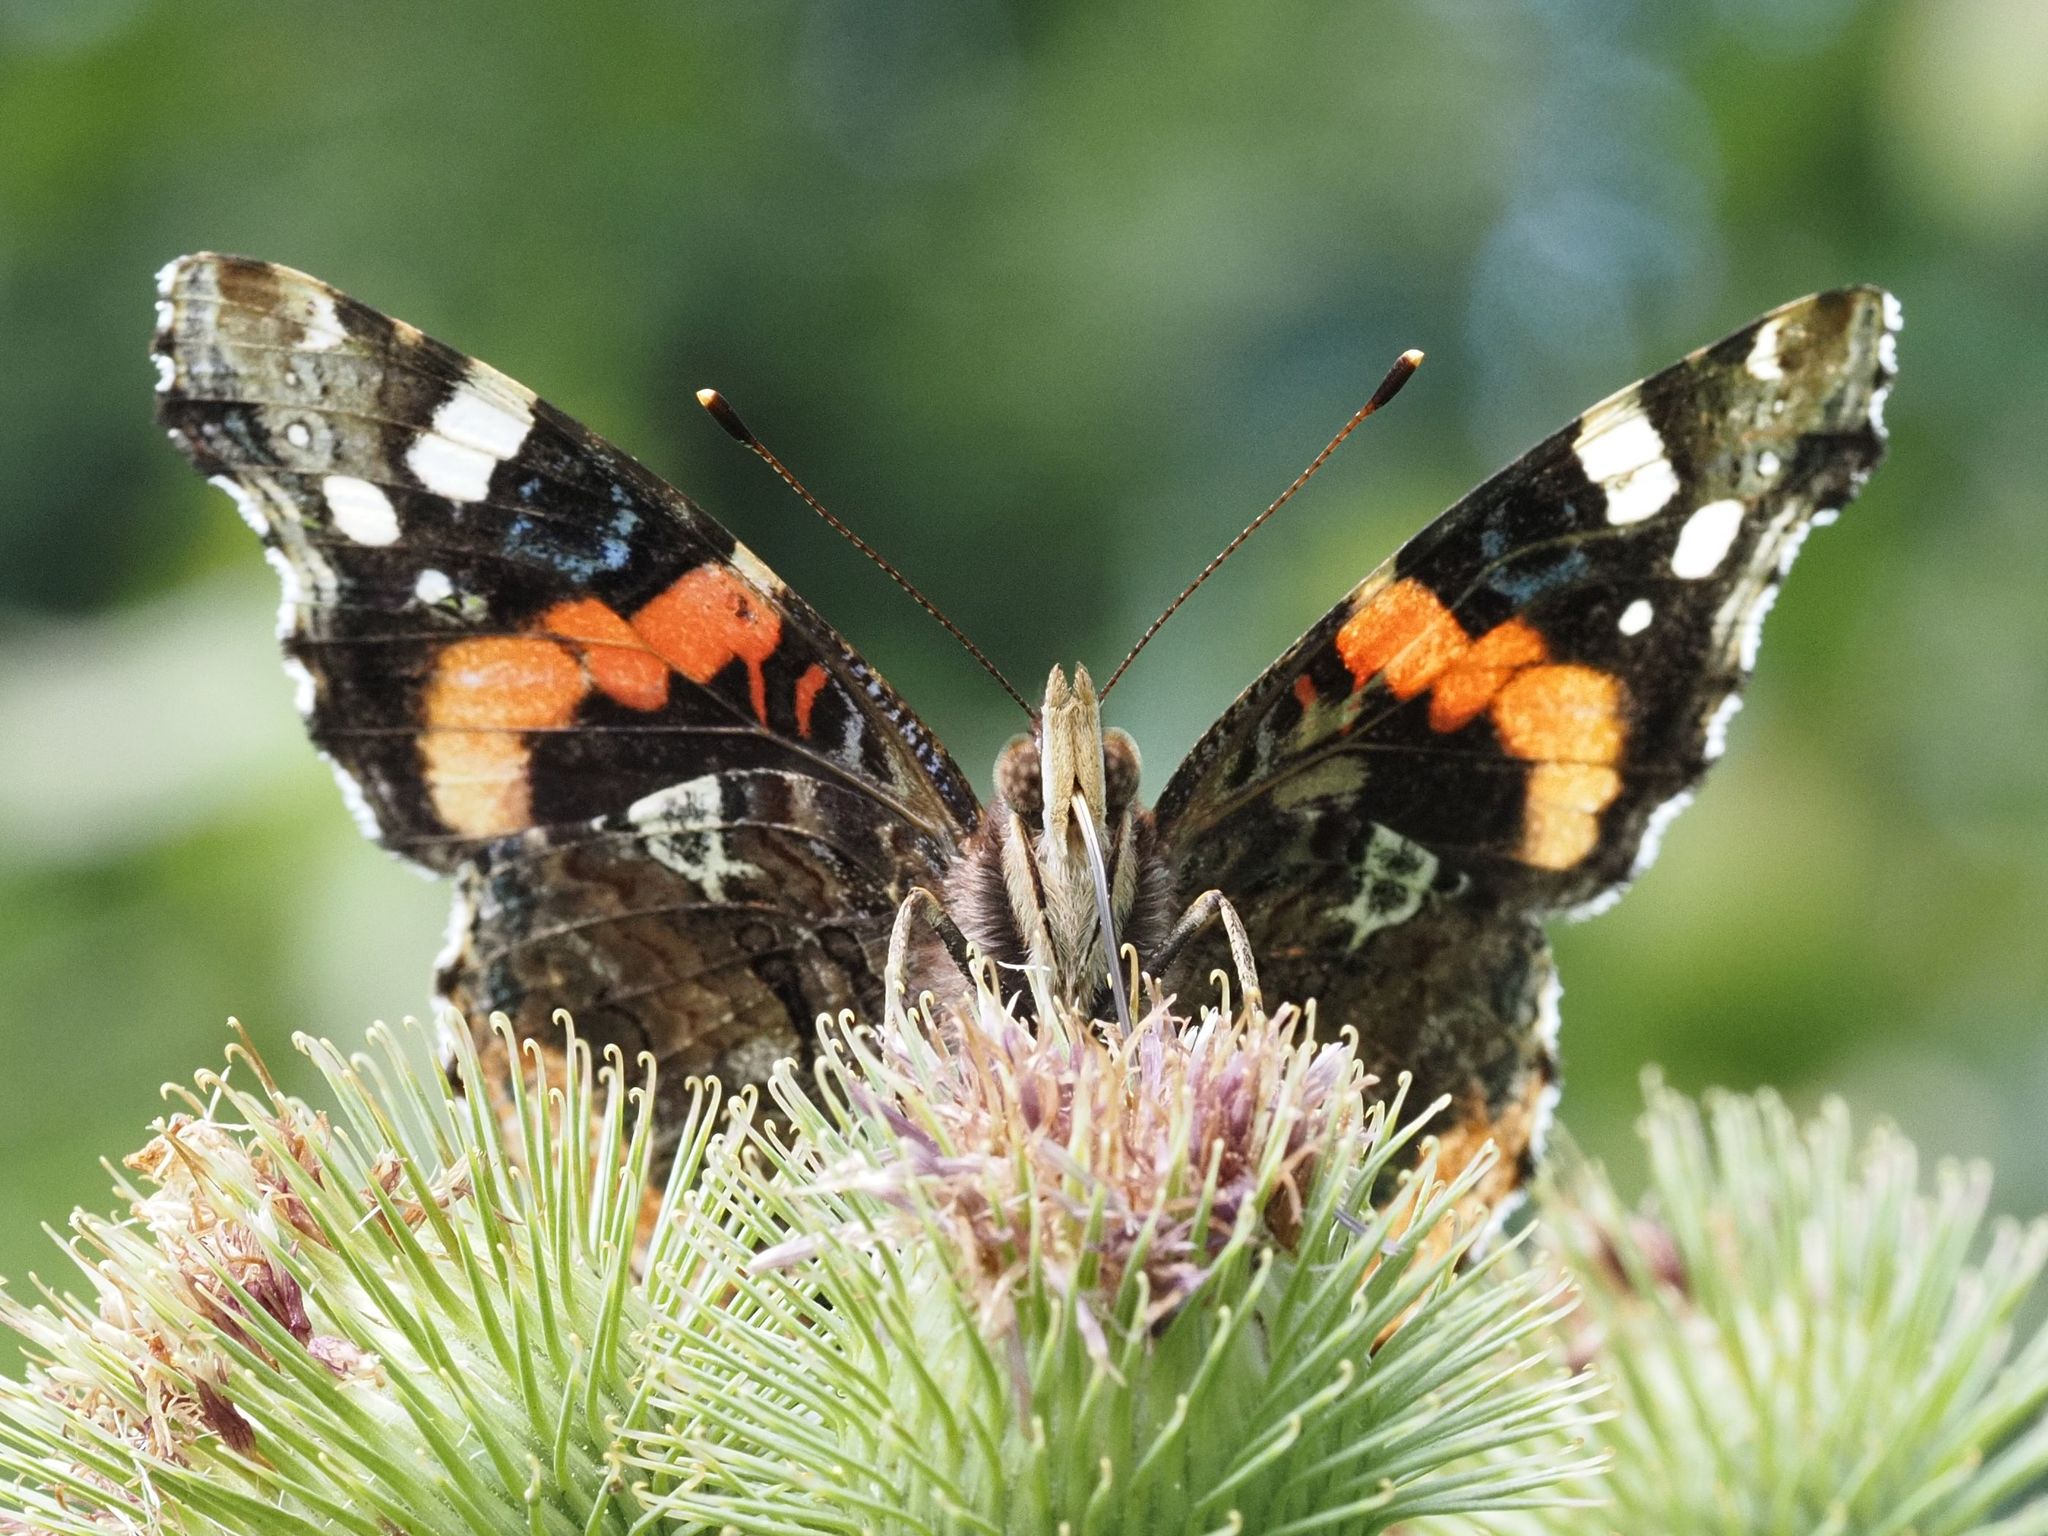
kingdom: Animalia
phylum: Arthropoda
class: Insecta
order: Lepidoptera
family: Nymphalidae
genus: Vanessa
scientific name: Vanessa atalanta
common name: Red admiral
